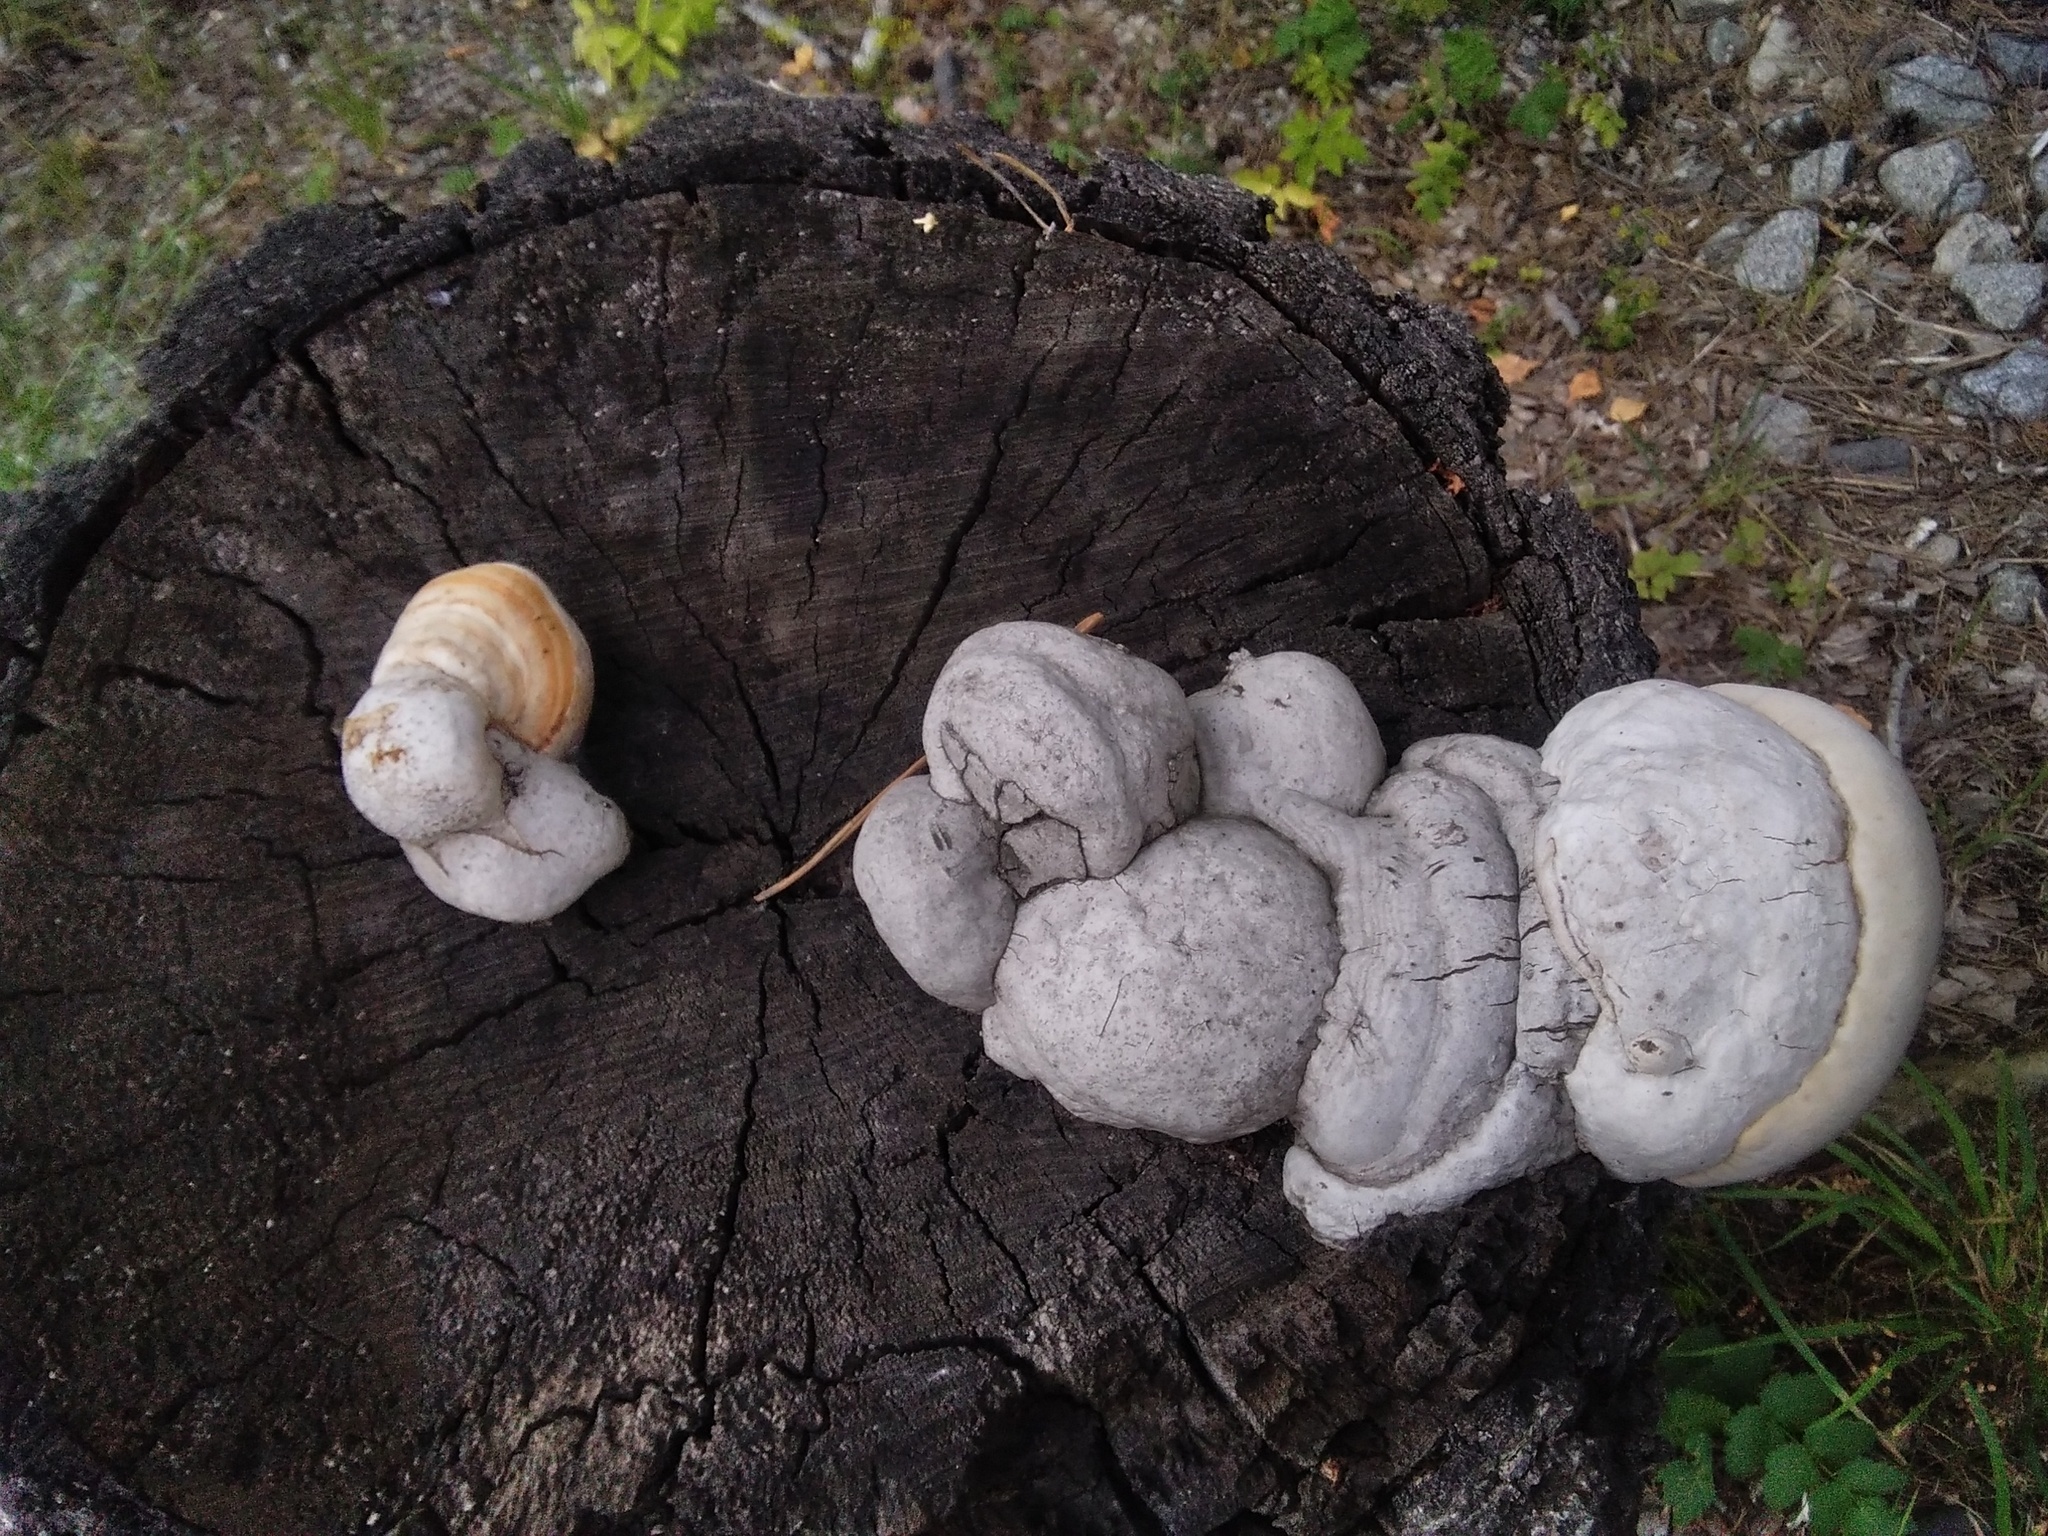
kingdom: Fungi
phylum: Basidiomycota
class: Agaricomycetes
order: Polyporales
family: Polyporaceae
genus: Fomes
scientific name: Fomes fomentarius
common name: Hoof fungus
